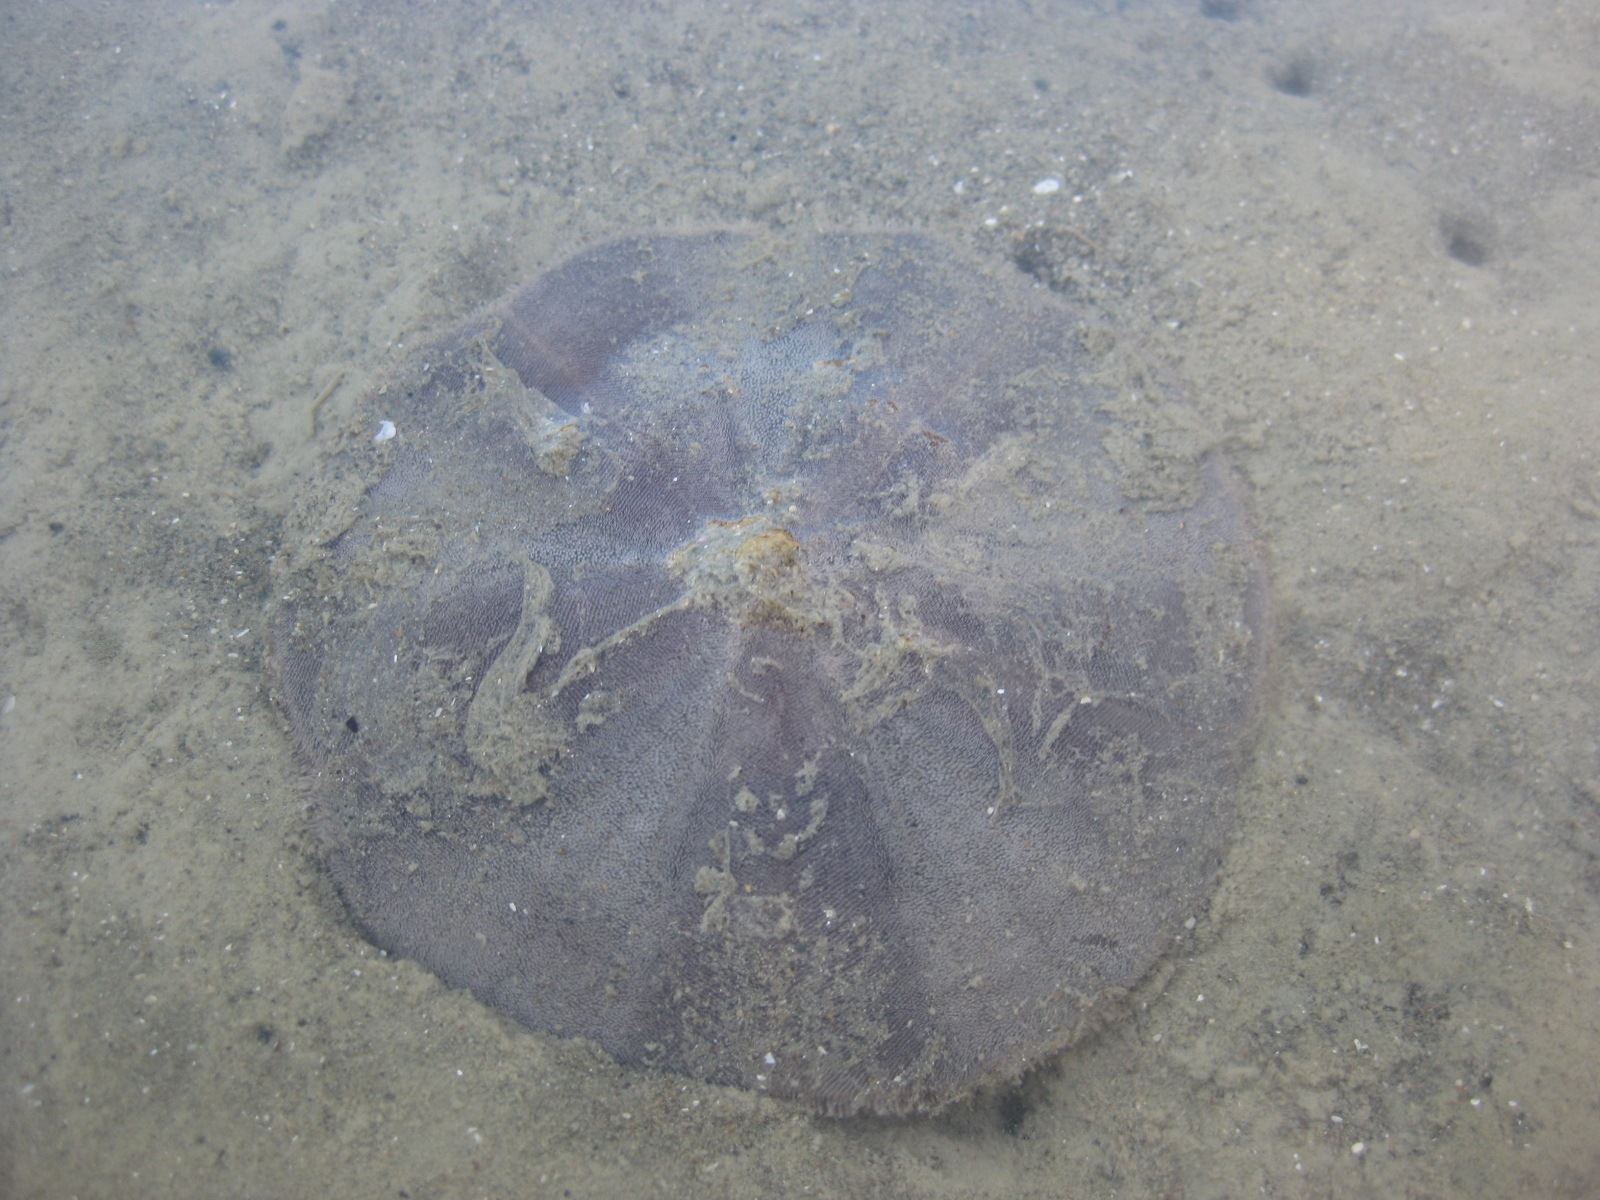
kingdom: Animalia
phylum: Echinodermata
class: Echinoidea
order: Clypeasteroida
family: Clypeasteridae
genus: Fellaster
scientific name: Fellaster zelandiae
